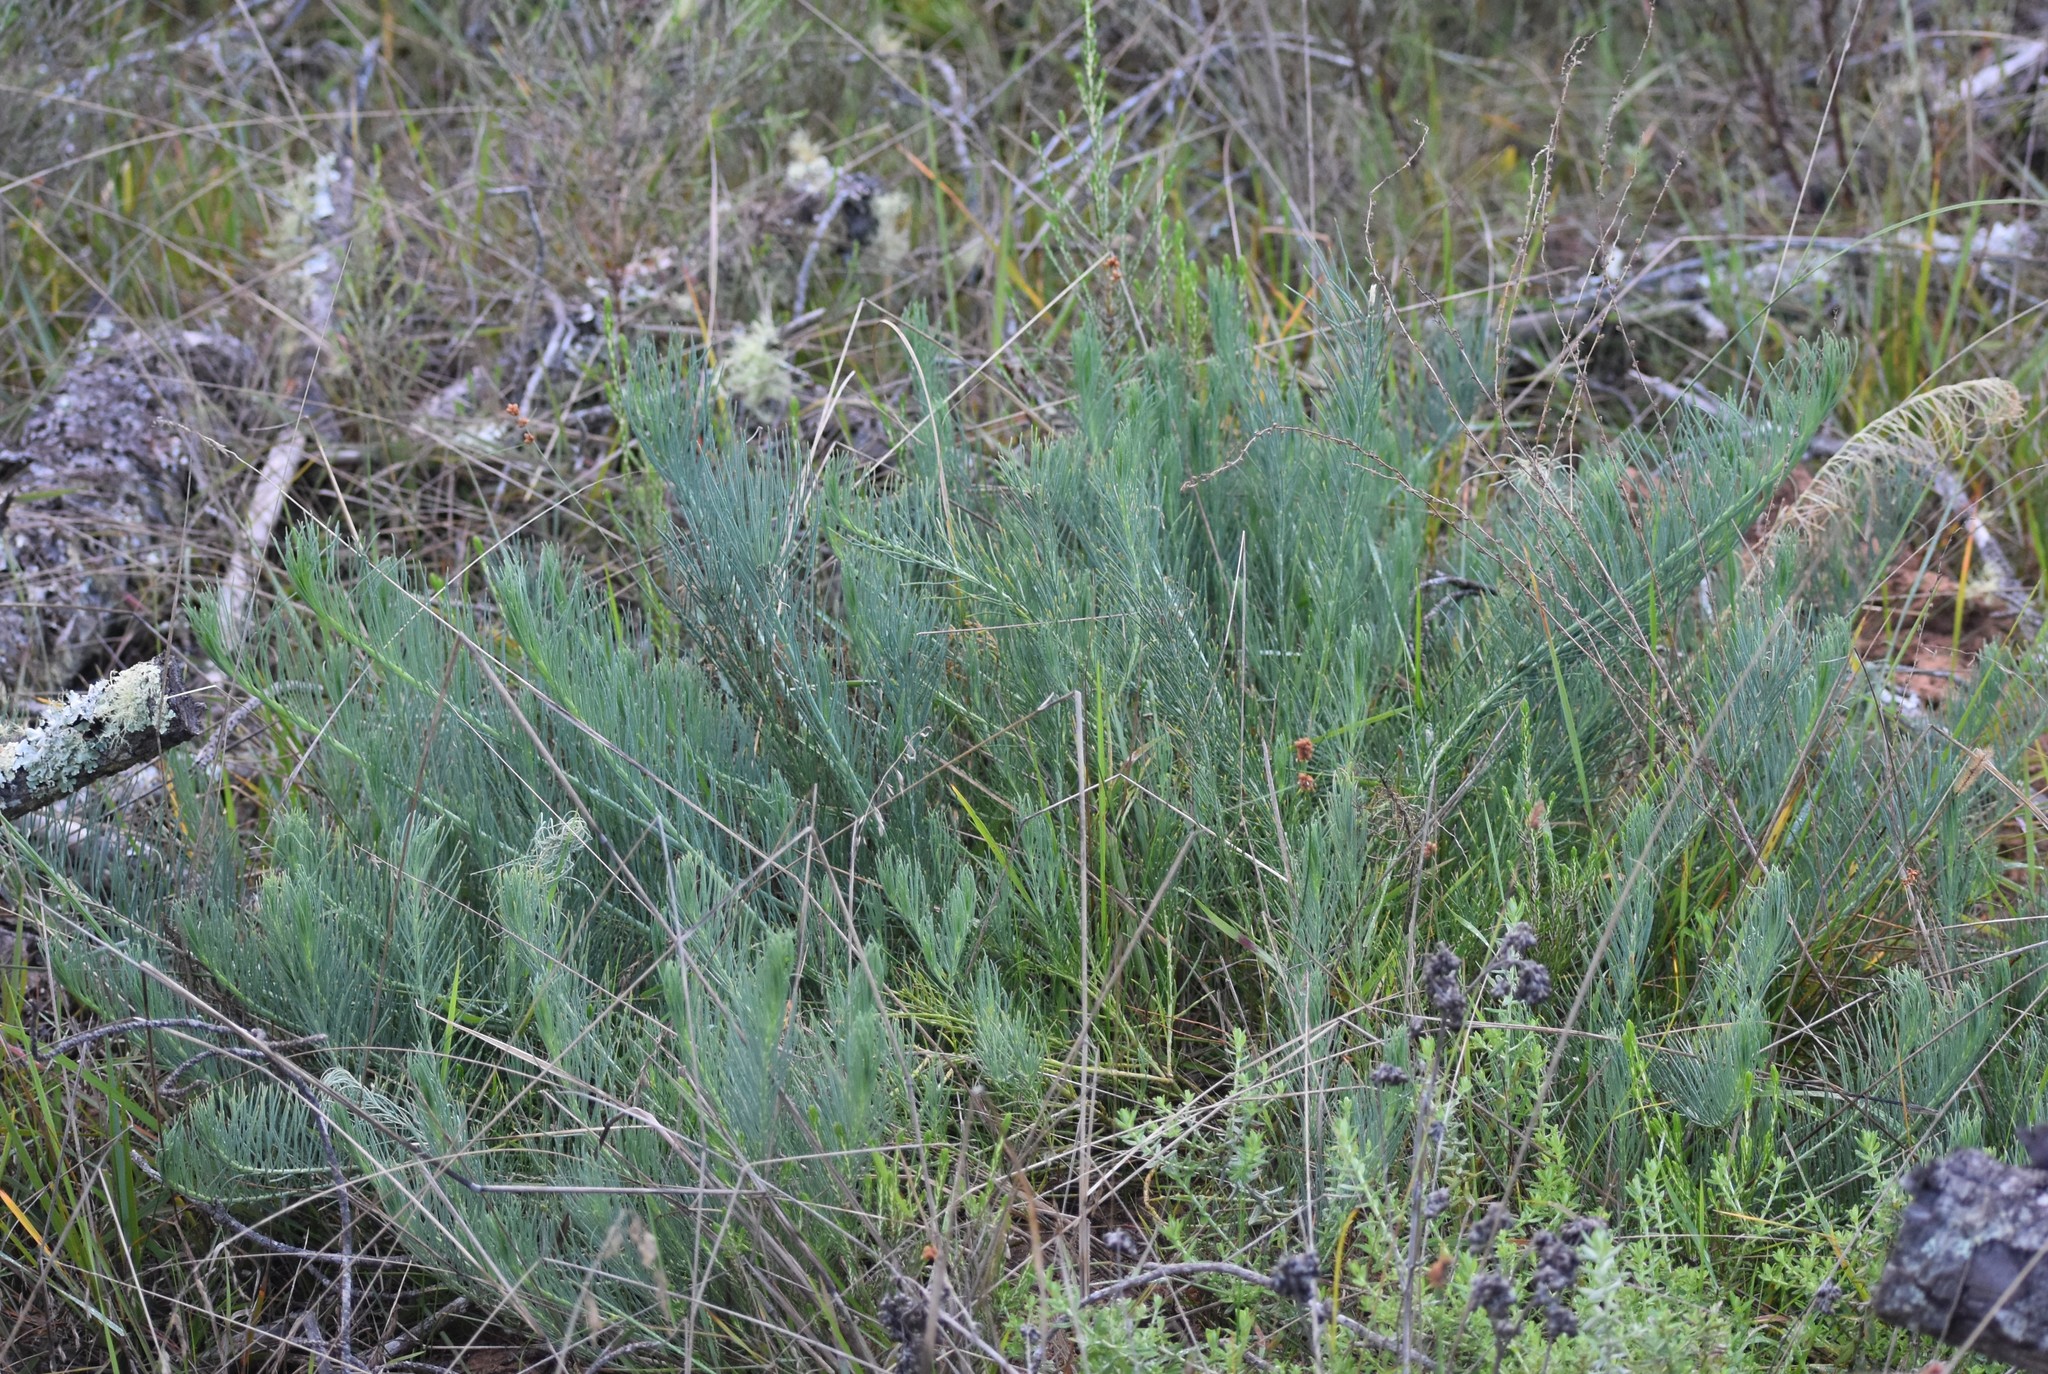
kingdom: Plantae
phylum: Tracheophyta
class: Magnoliopsida
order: Fabales
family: Fabaceae
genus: Lebeckia
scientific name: Lebeckia gracilis
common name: Slender ganna
